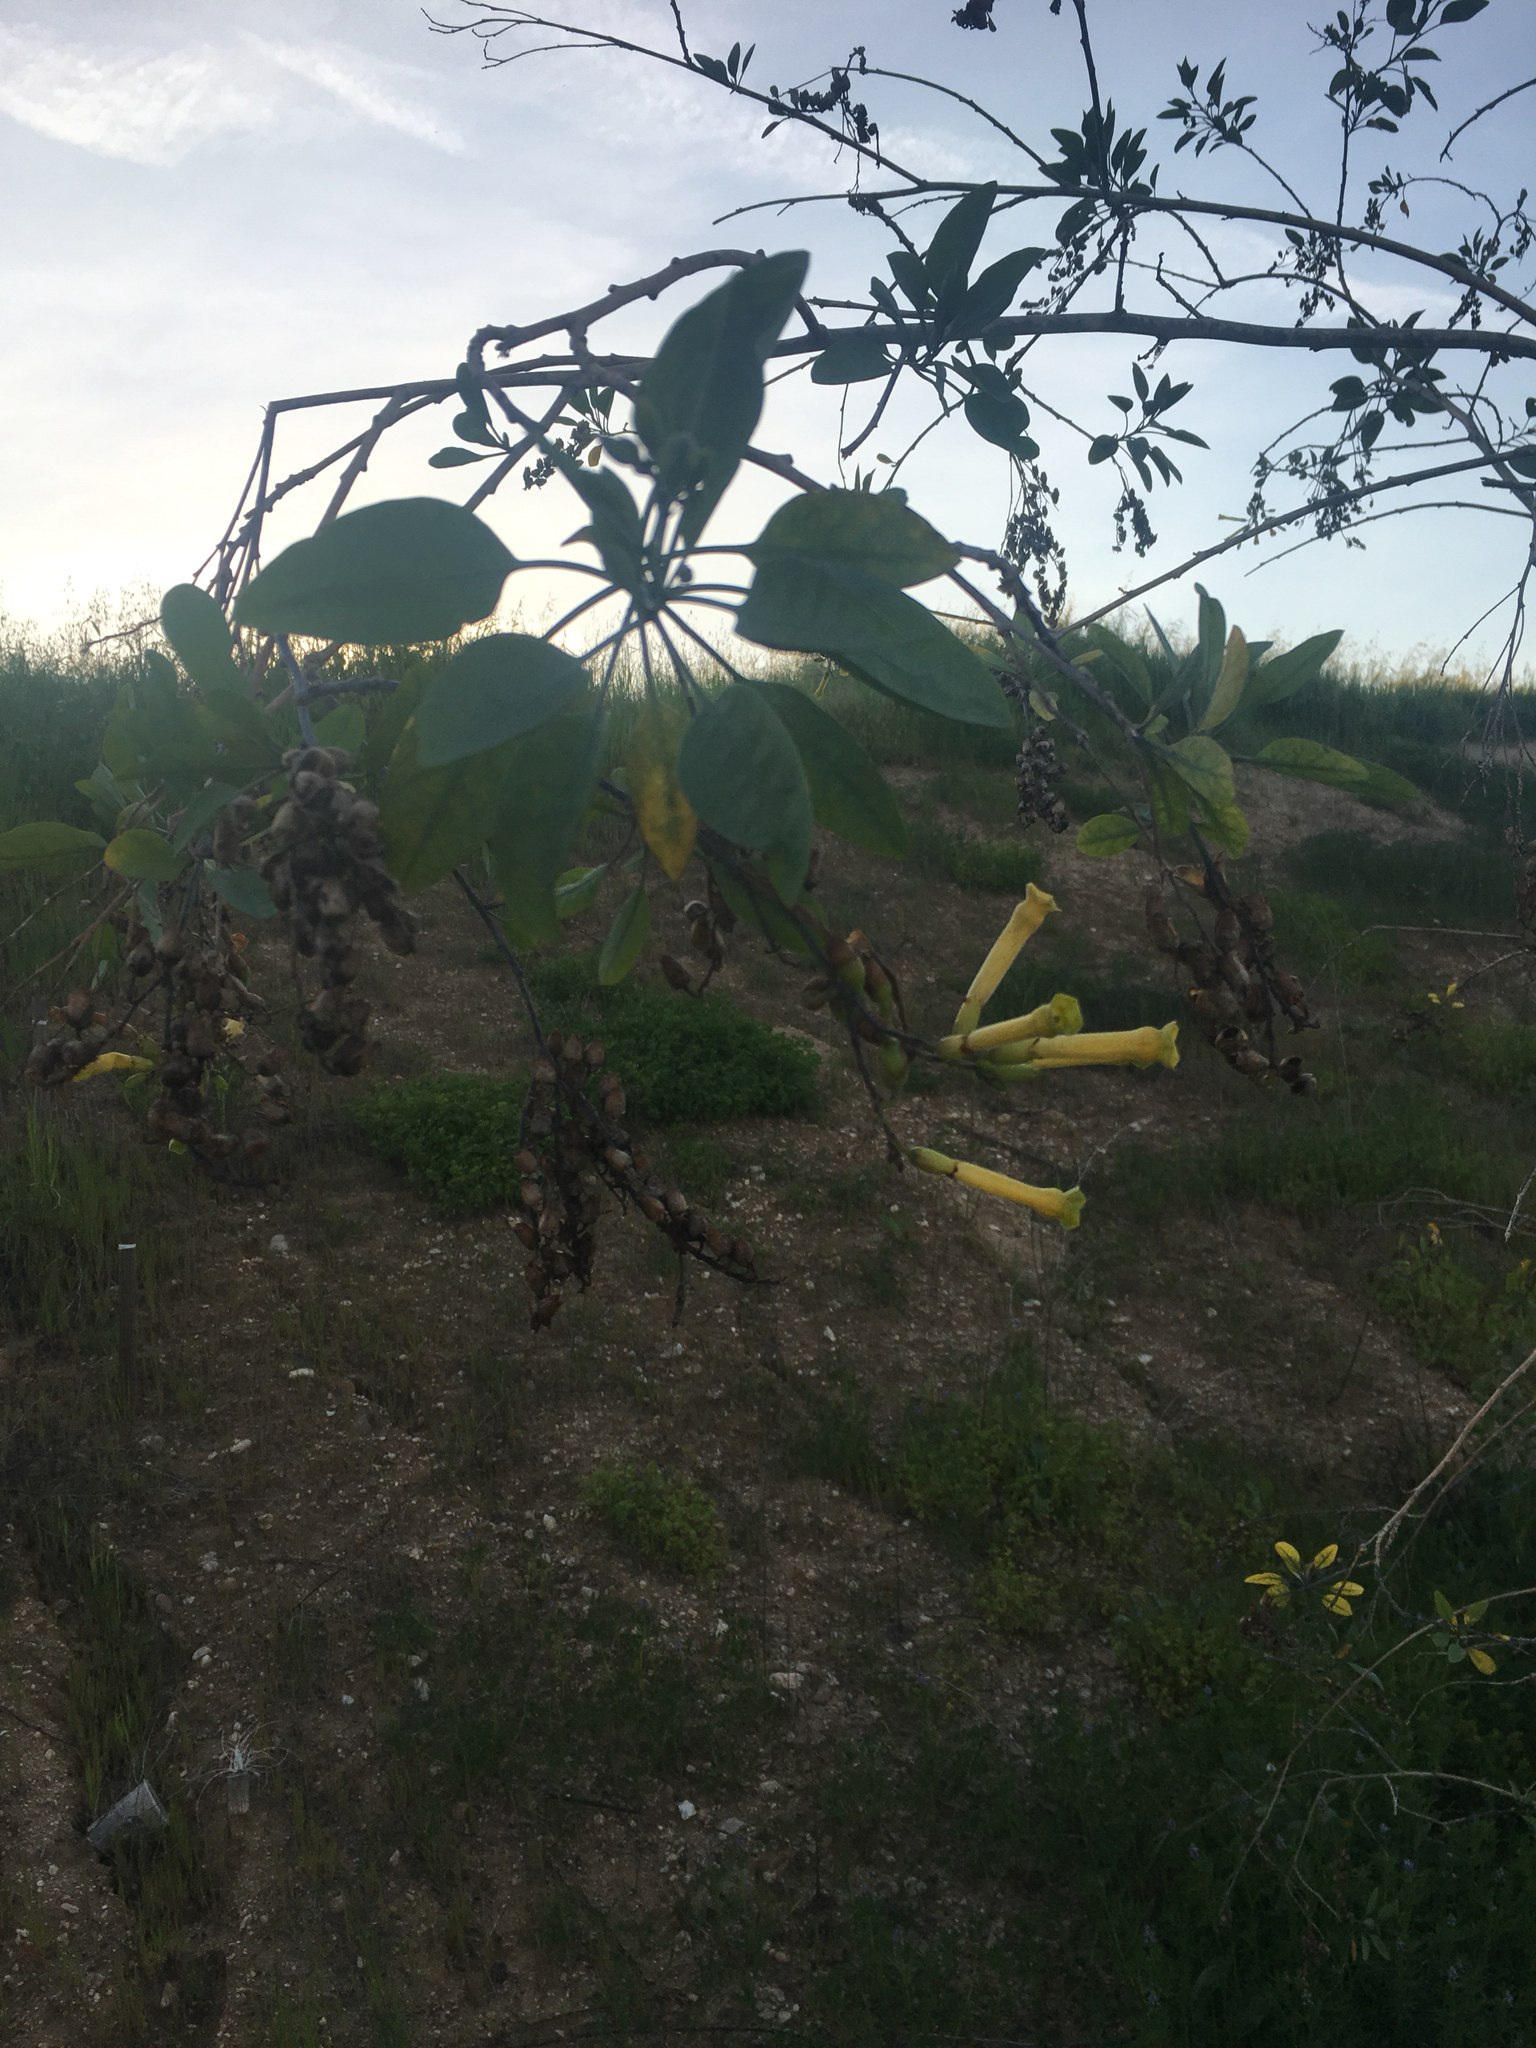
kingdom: Plantae
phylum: Tracheophyta
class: Magnoliopsida
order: Solanales
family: Solanaceae
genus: Nicotiana
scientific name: Nicotiana glauca
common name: Tree tobacco
